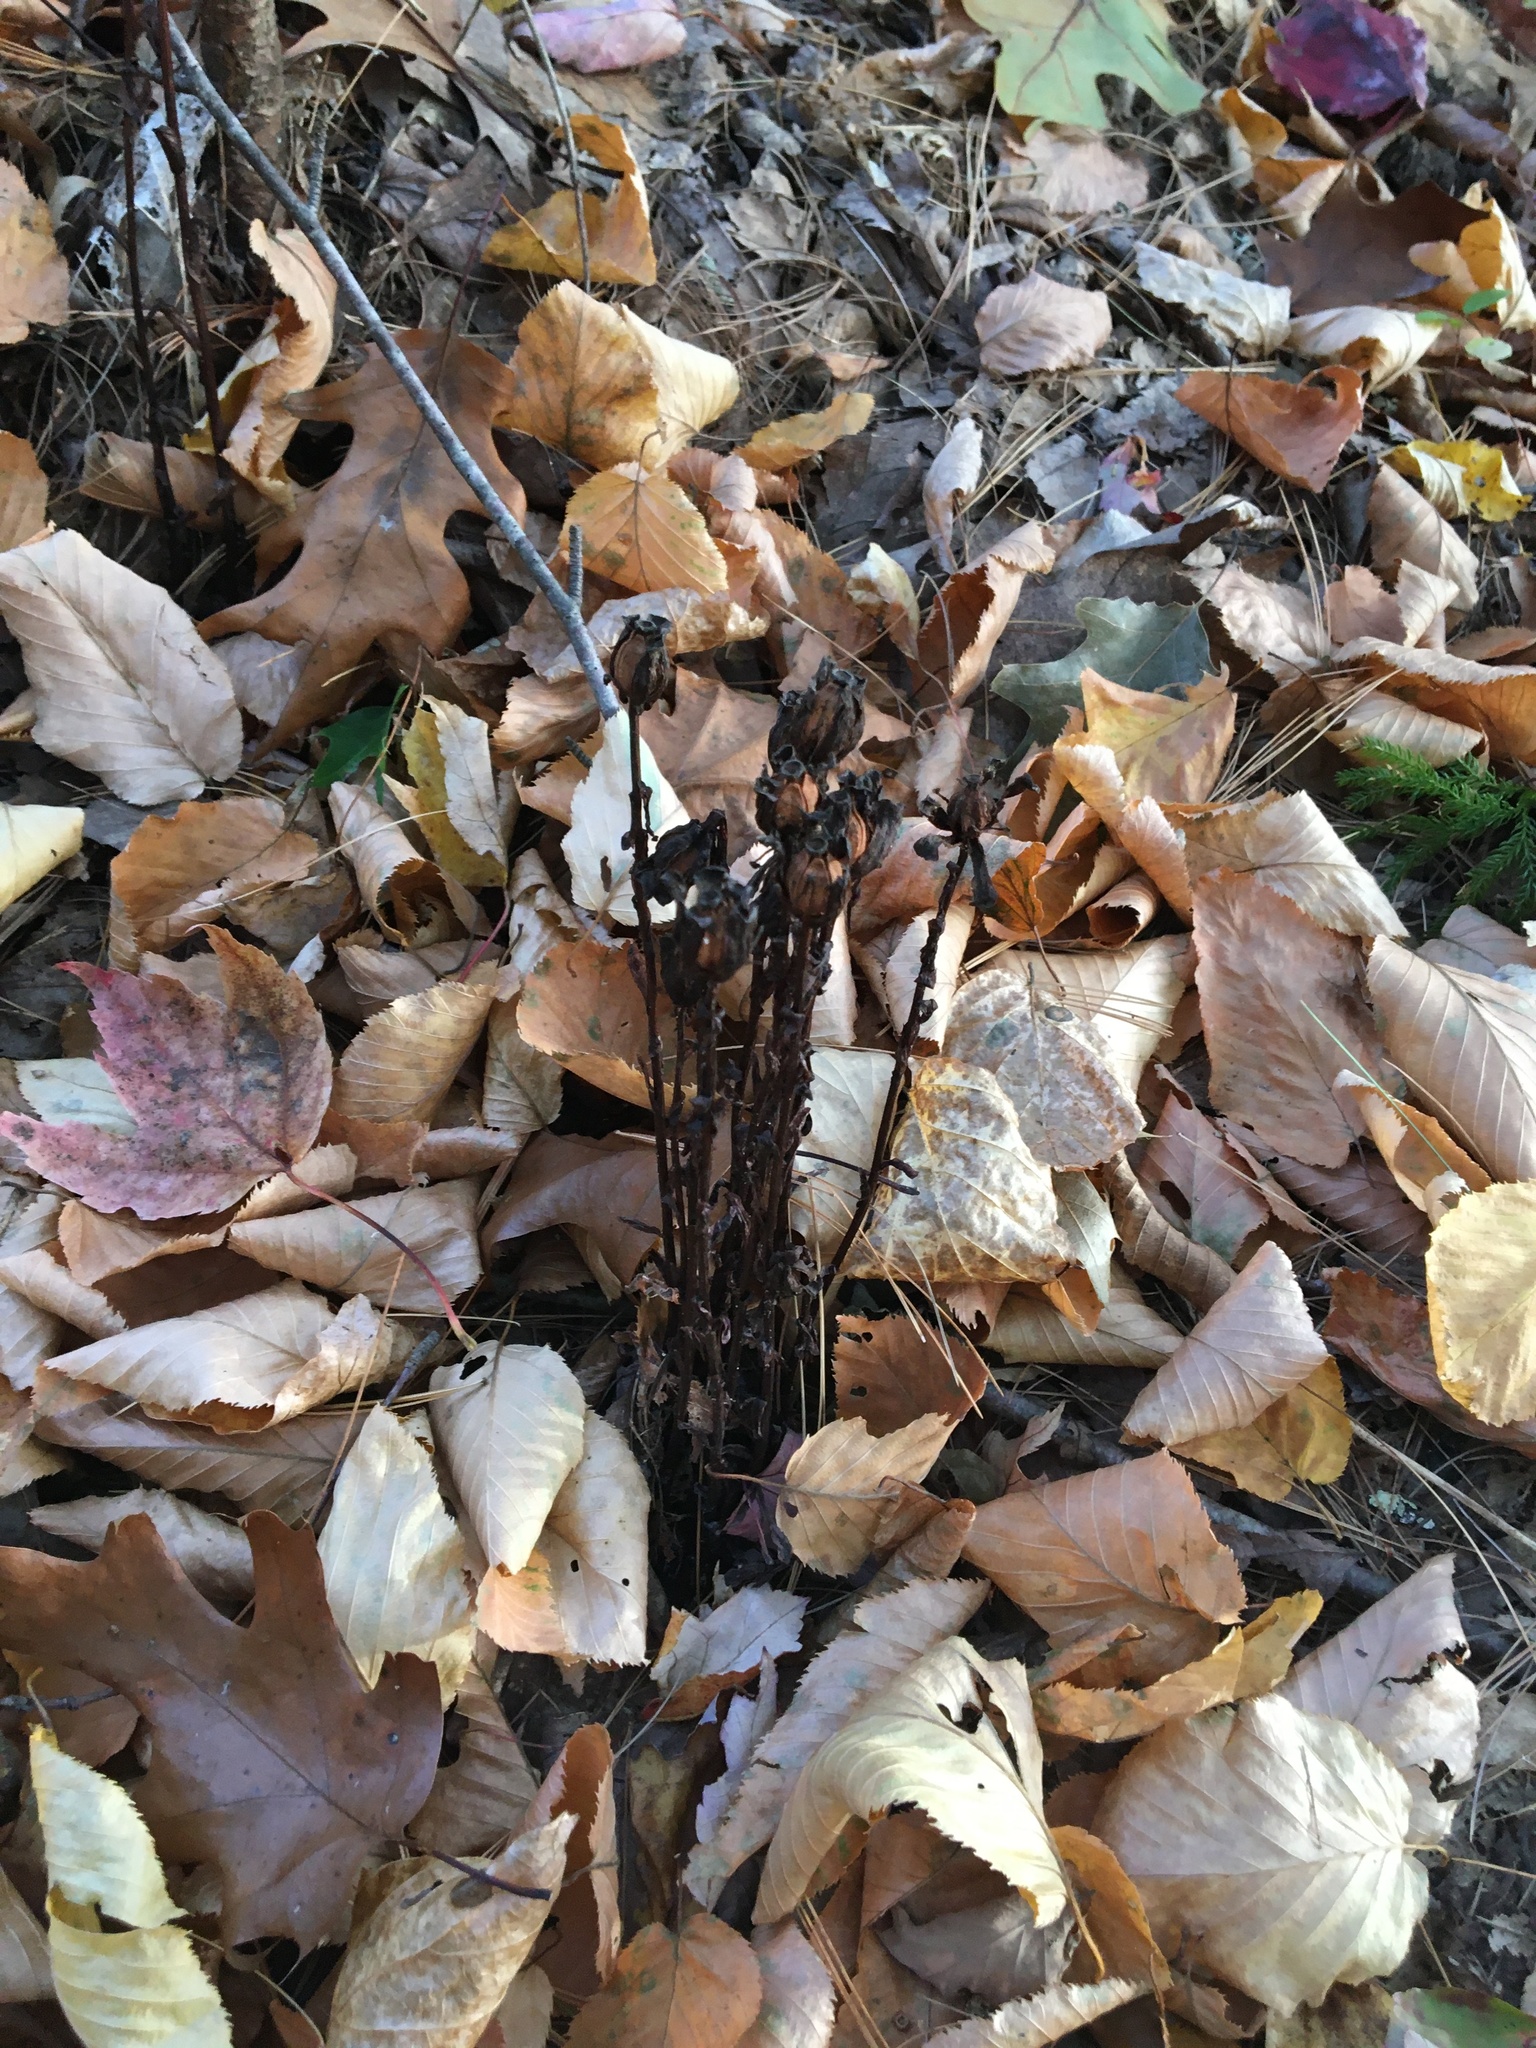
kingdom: Plantae
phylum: Tracheophyta
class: Magnoliopsida
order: Ericales
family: Ericaceae
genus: Monotropa
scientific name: Monotropa uniflora
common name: Convulsion root
